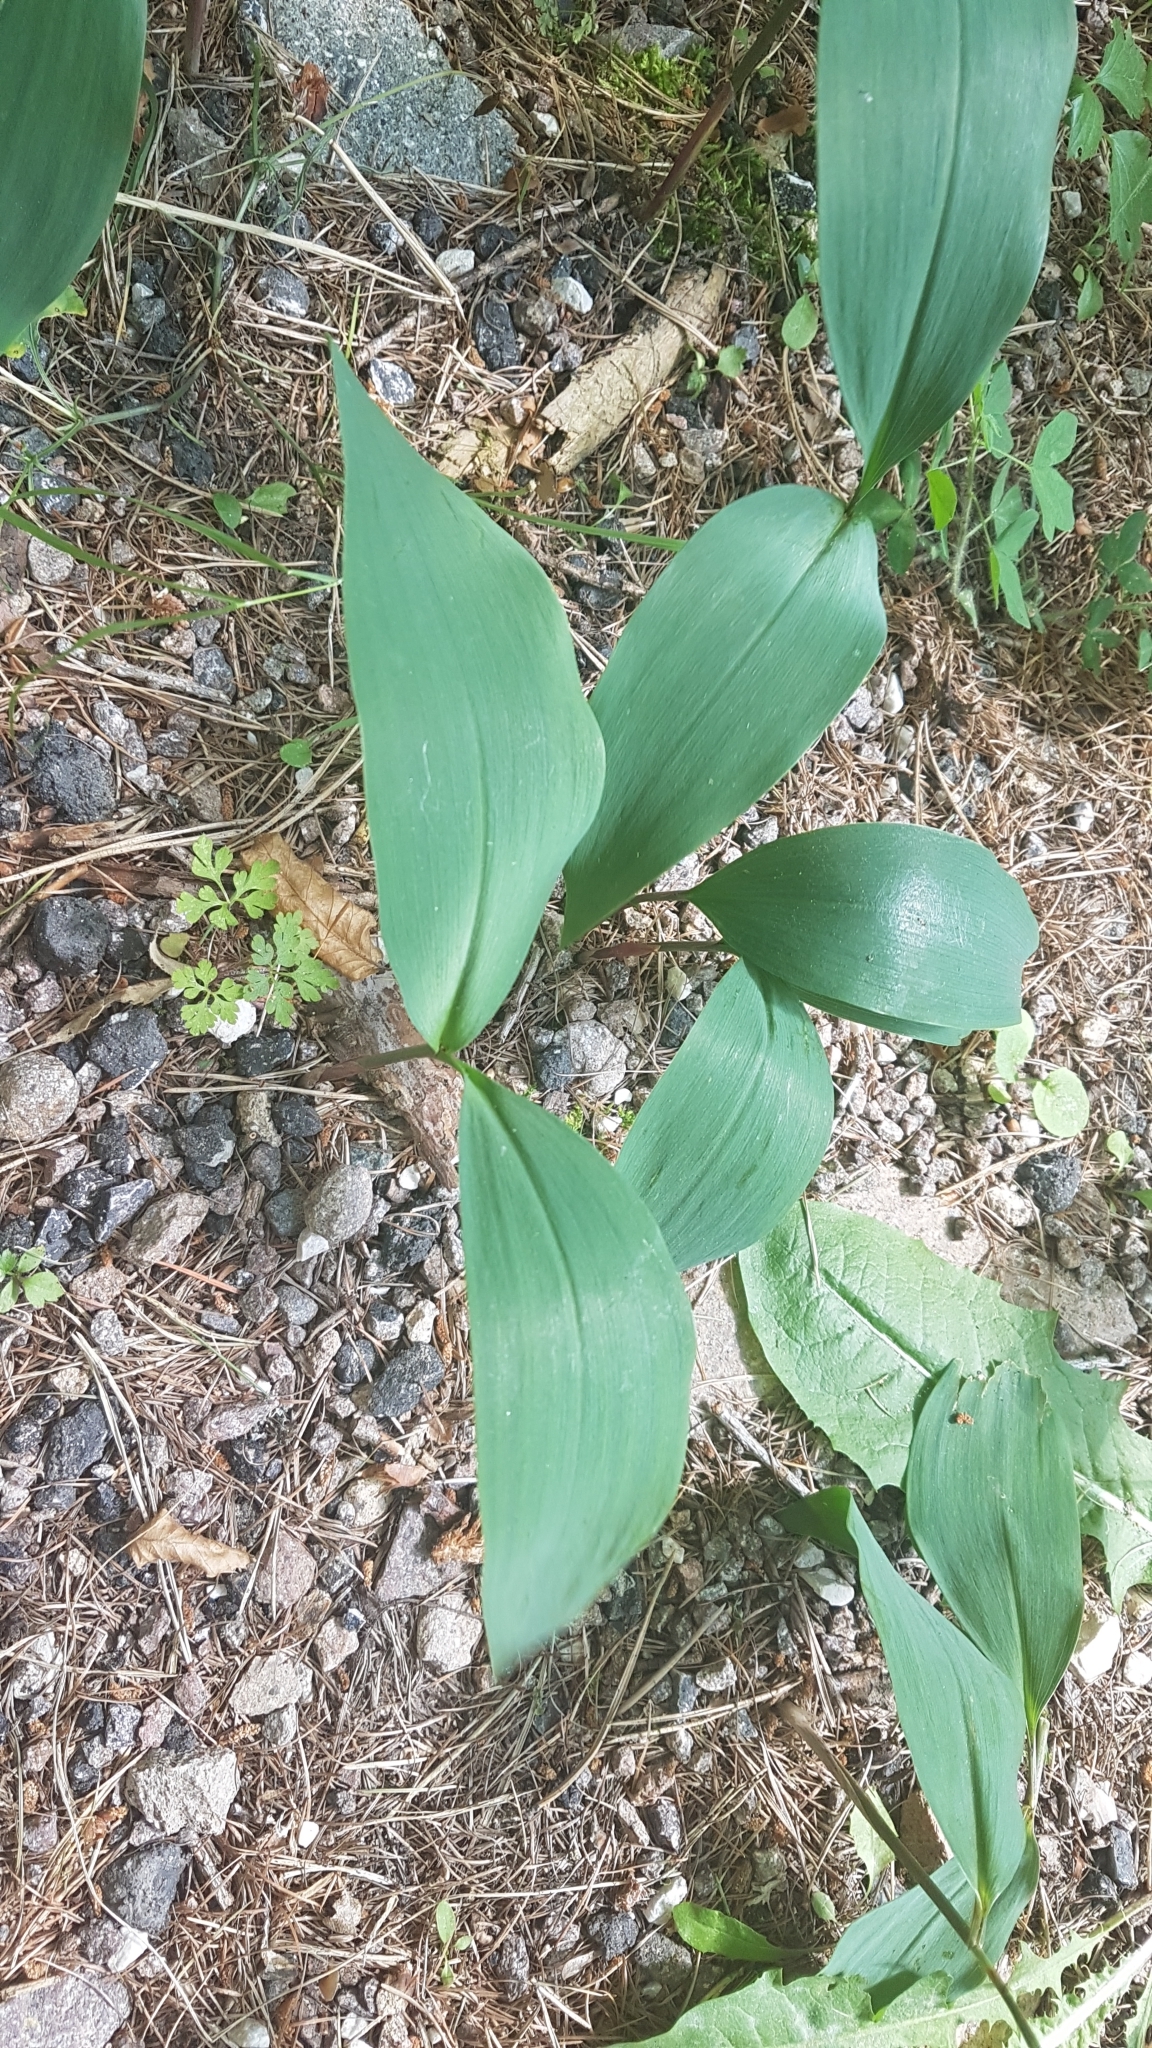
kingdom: Plantae
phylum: Tracheophyta
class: Liliopsida
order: Asparagales
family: Asparagaceae
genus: Convallaria
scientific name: Convallaria majalis
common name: Lily-of-the-valley
